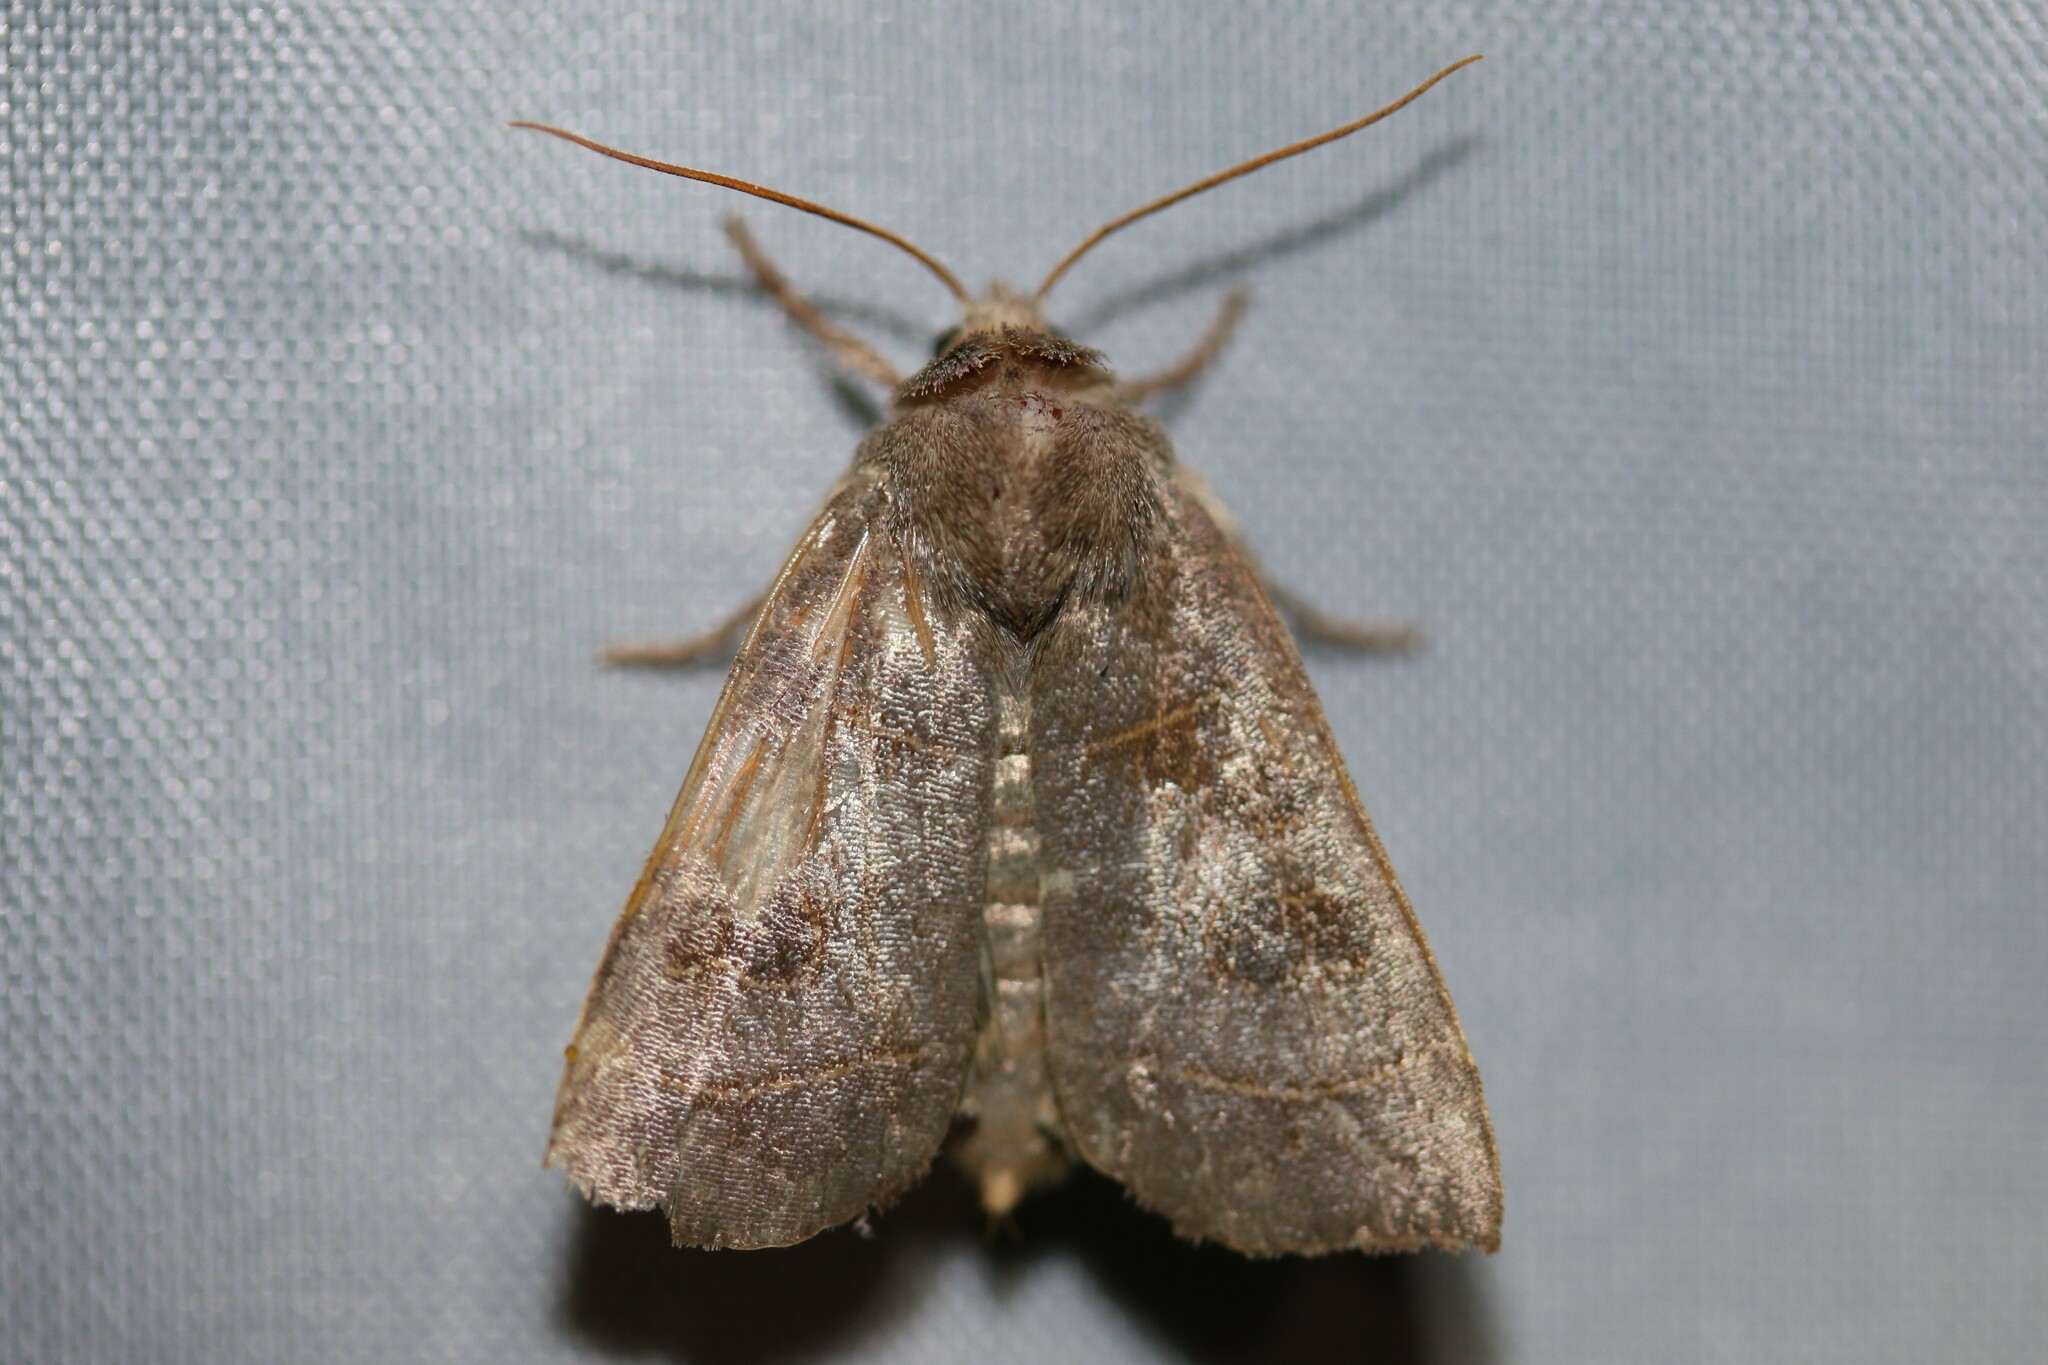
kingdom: Animalia
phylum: Arthropoda
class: Insecta
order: Lepidoptera
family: Noctuidae
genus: Ipimorpha
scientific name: Ipimorpha subtusa
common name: Olive
